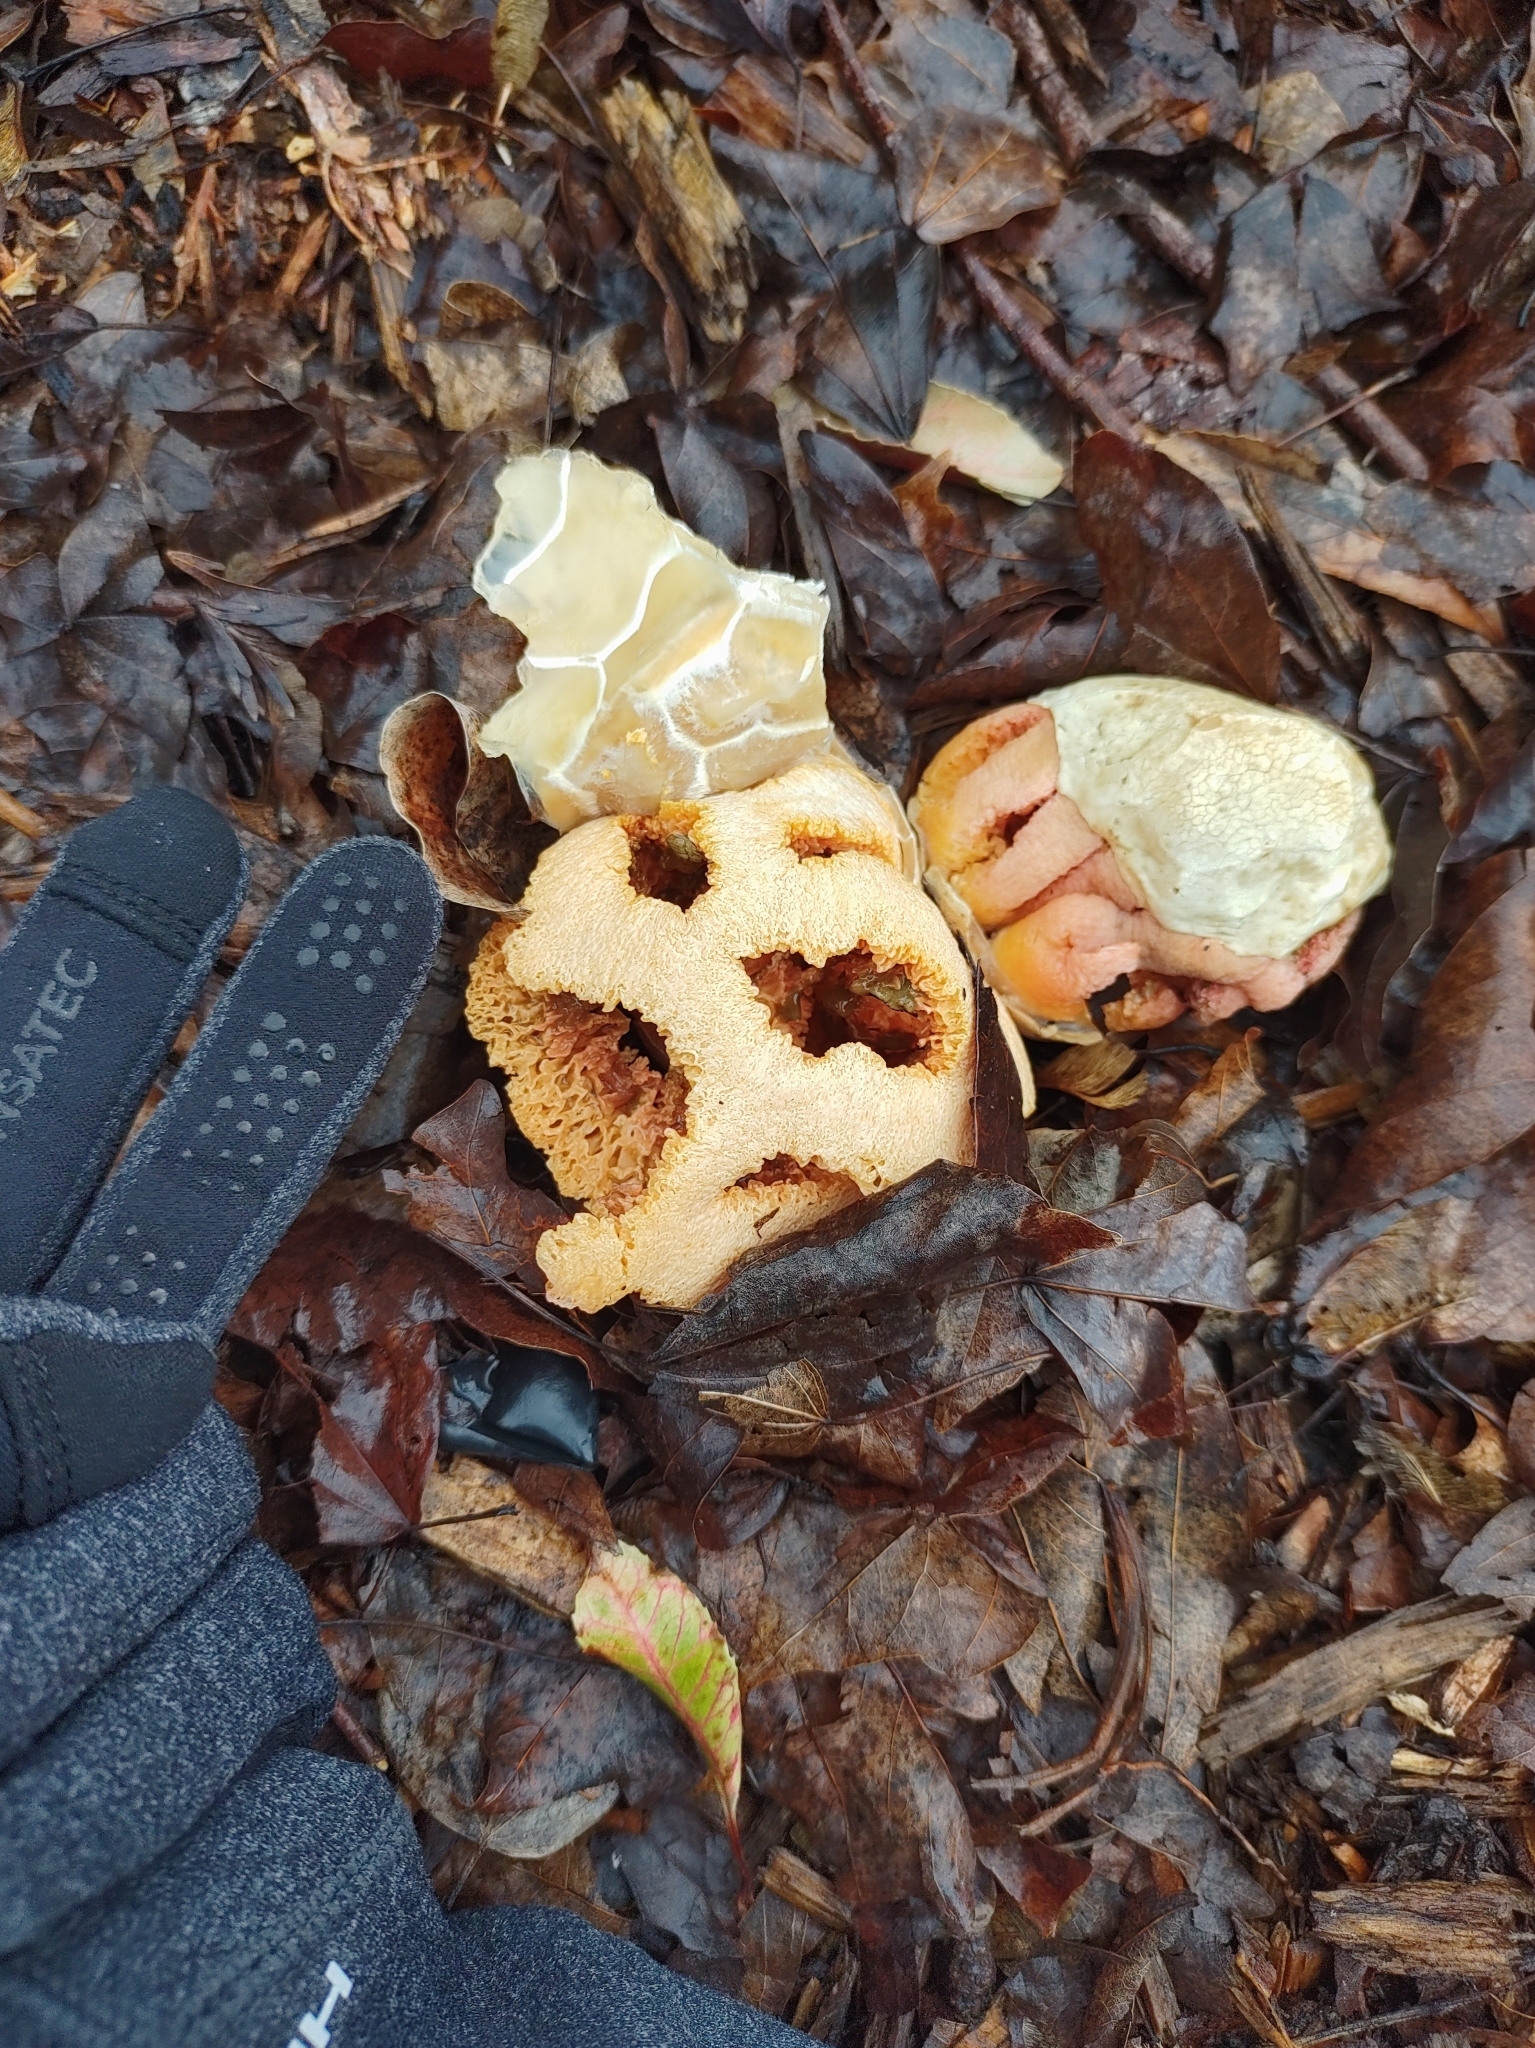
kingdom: Fungi
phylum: Basidiomycota
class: Agaricomycetes
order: Phallales
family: Phallaceae
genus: Clathrus
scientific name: Clathrus ruber
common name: Red cage
